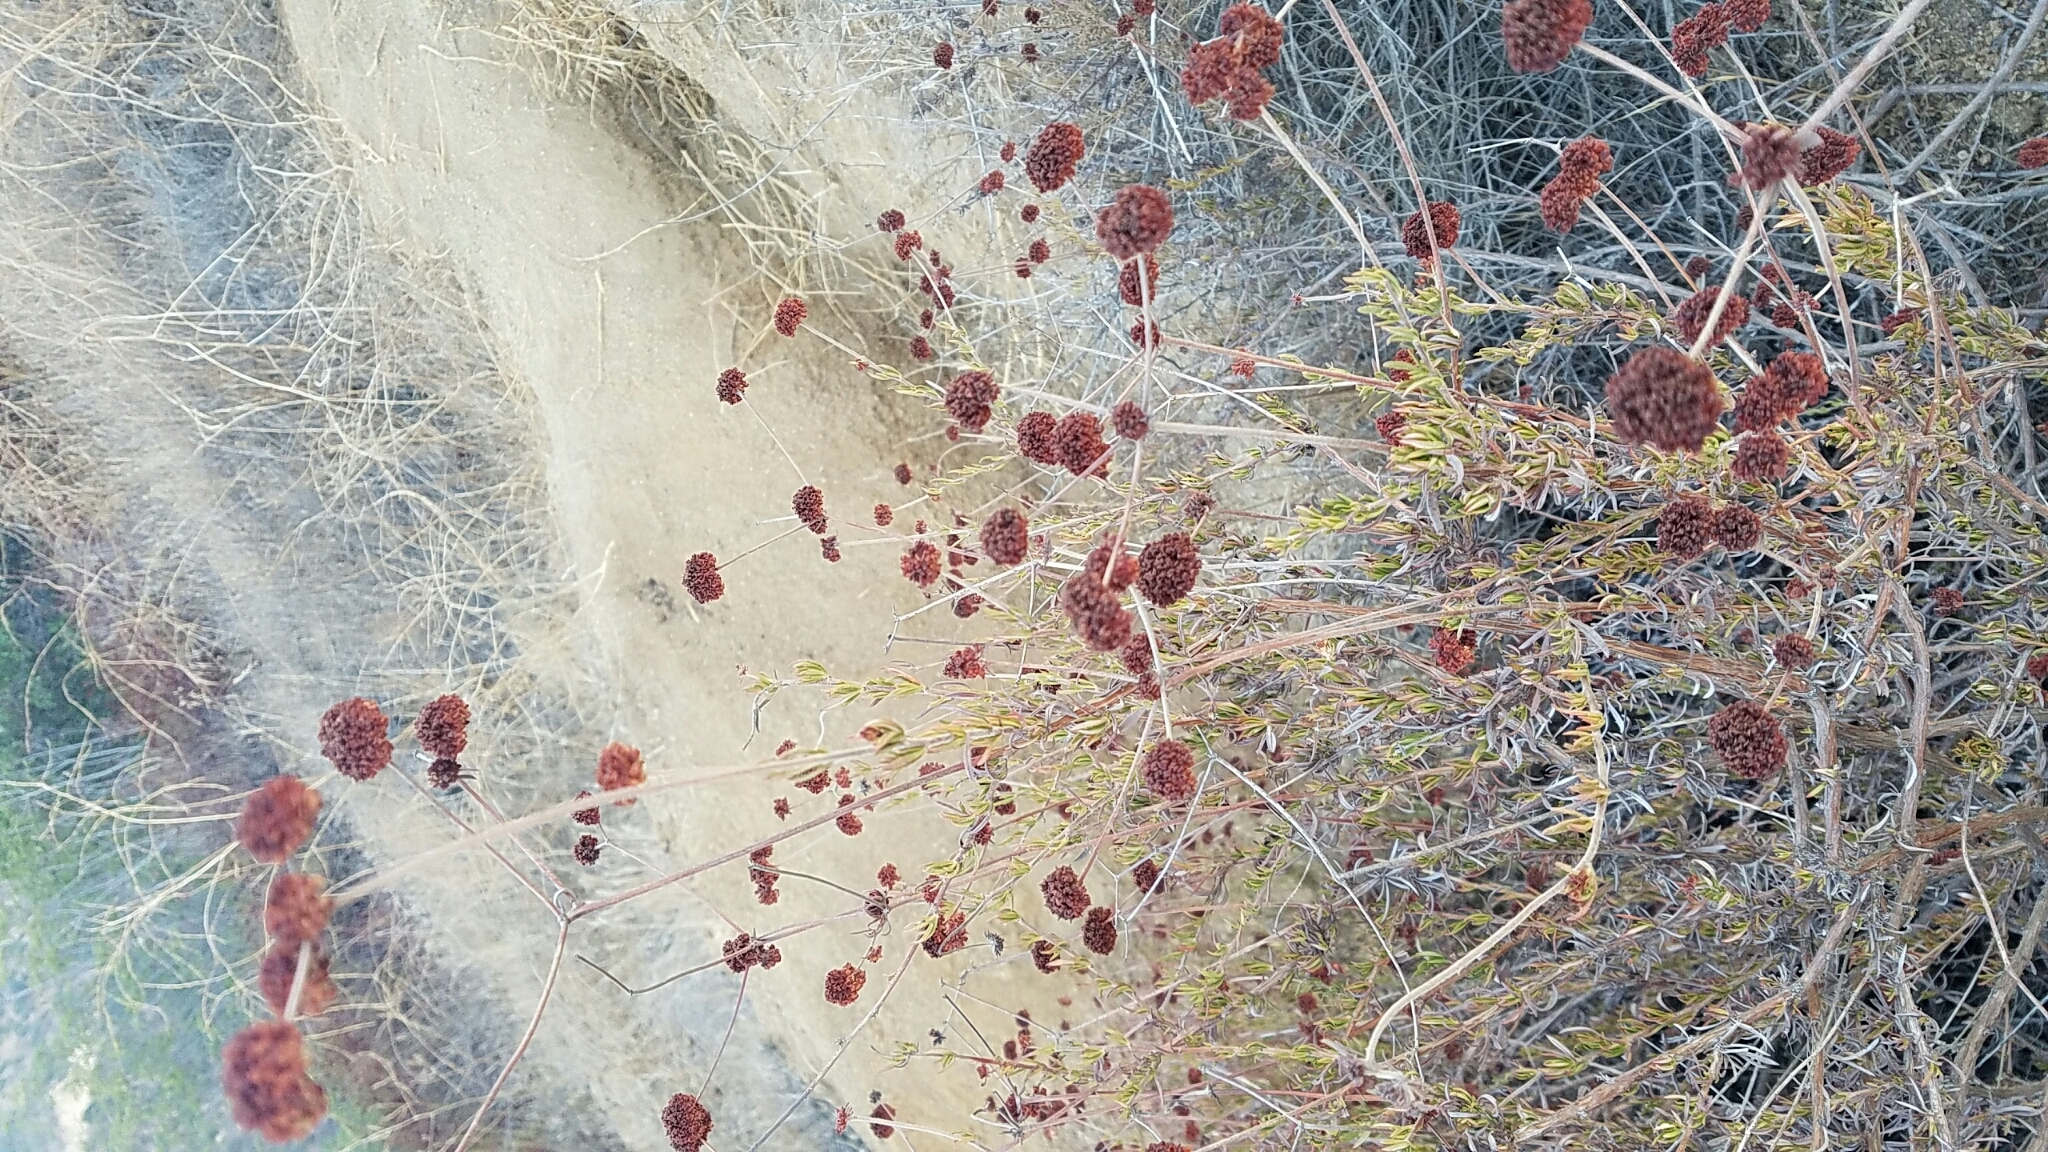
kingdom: Plantae
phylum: Tracheophyta
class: Magnoliopsida
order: Caryophyllales
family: Polygonaceae
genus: Eriogonum
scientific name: Eriogonum fasciculatum
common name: California wild buckwheat
